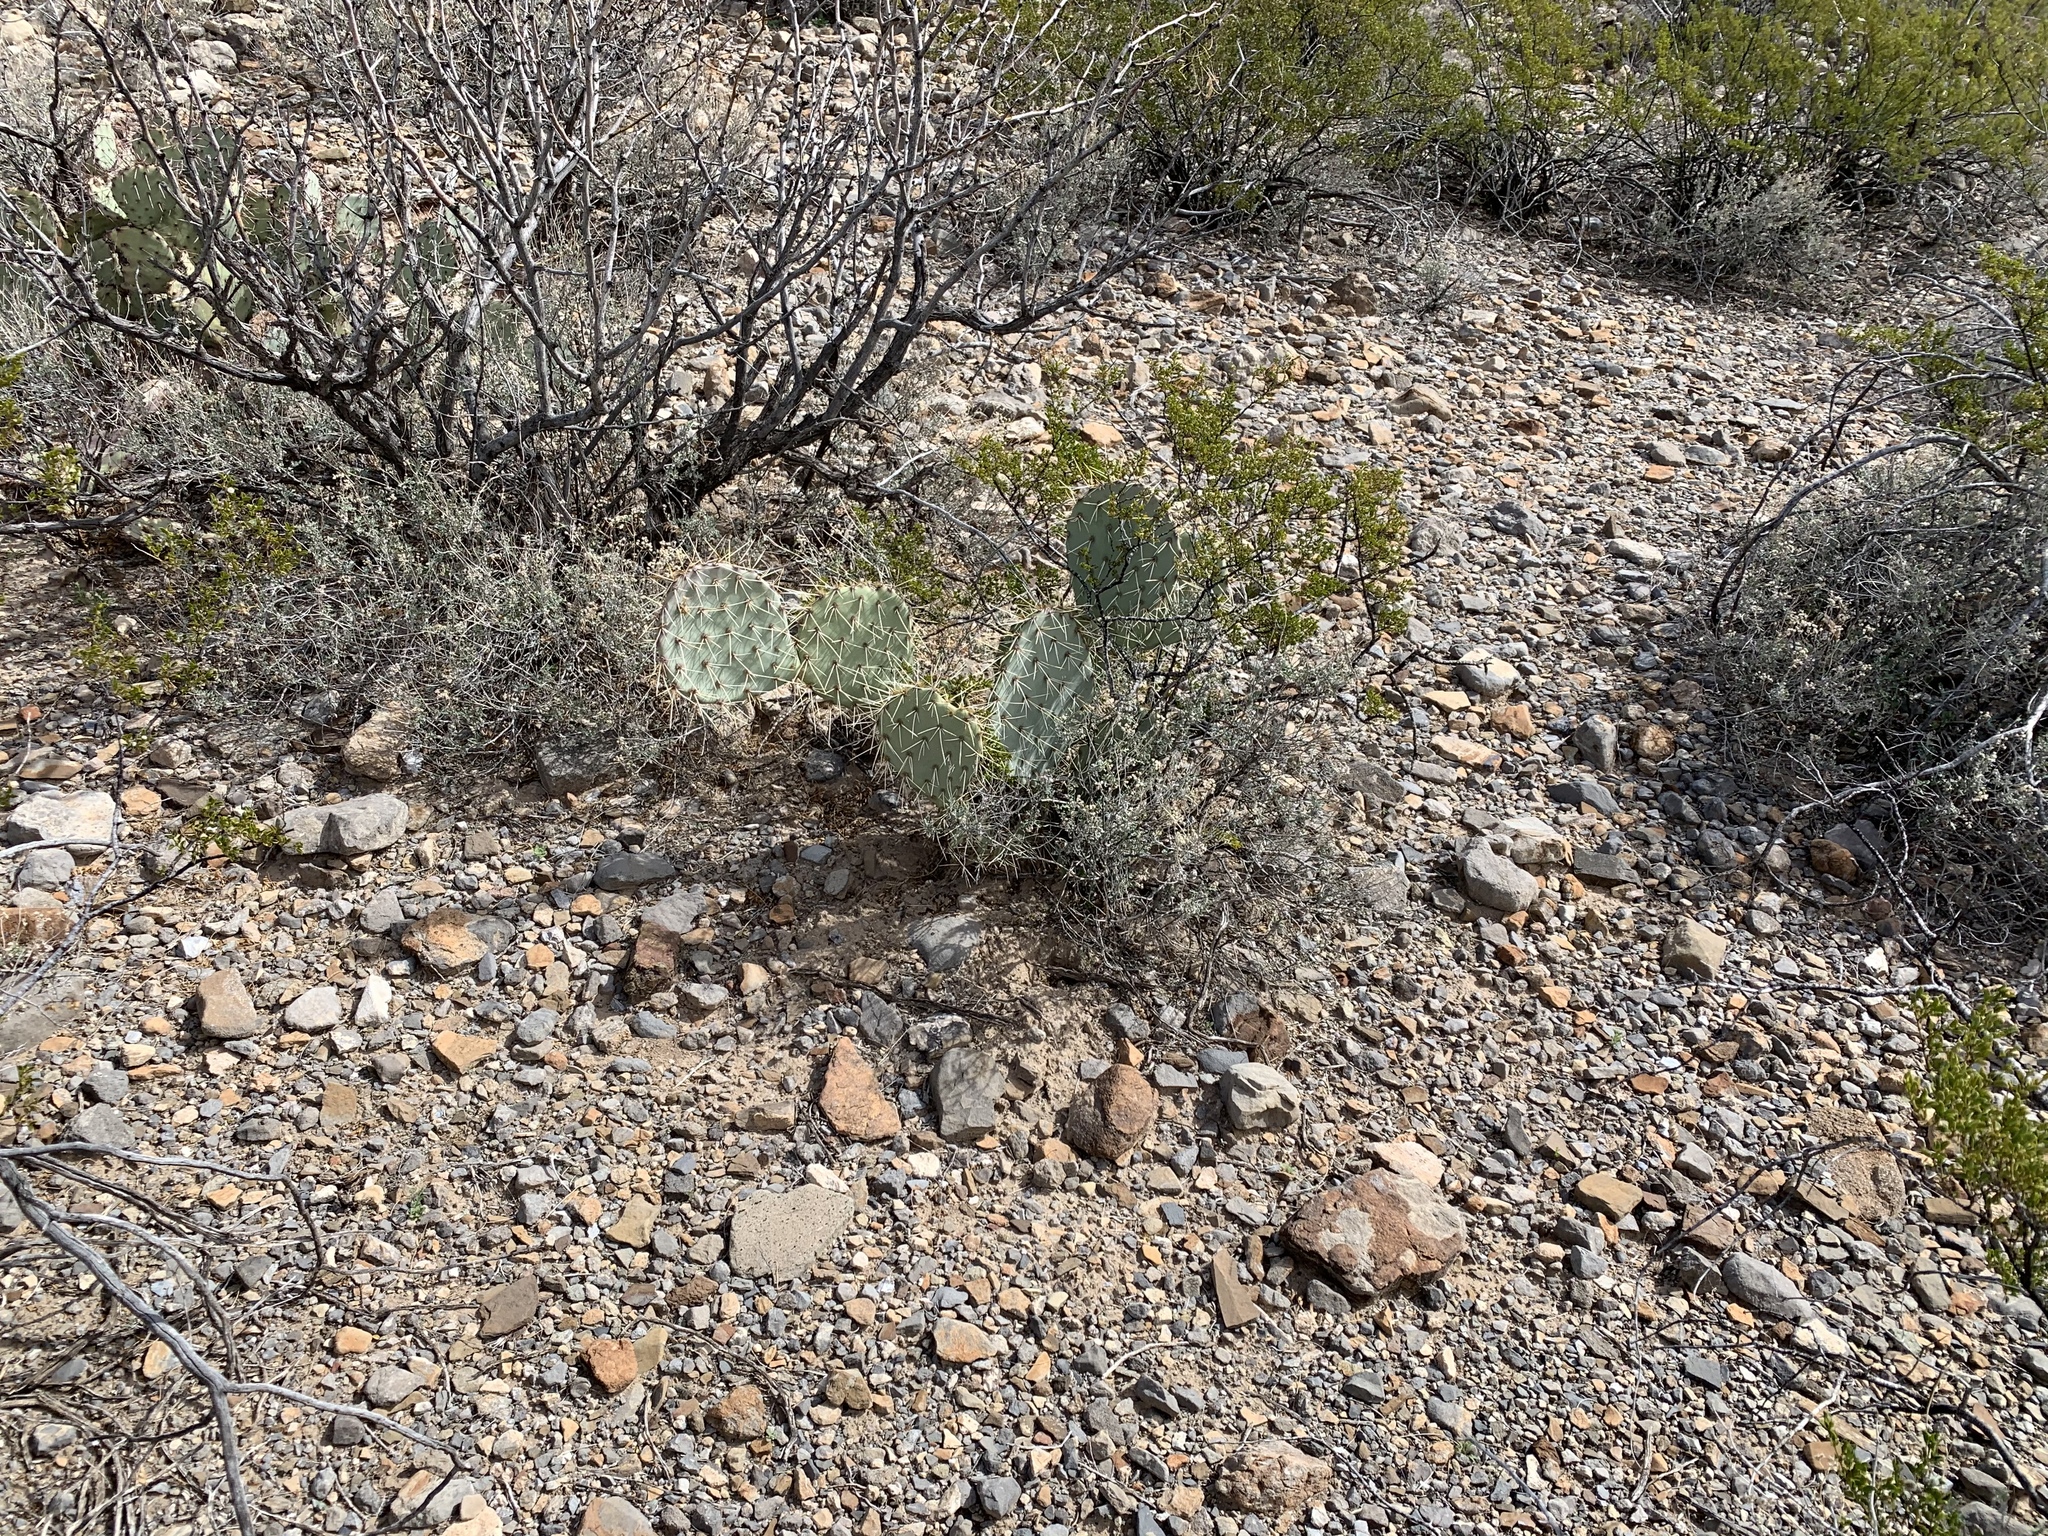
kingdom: Plantae
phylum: Tracheophyta
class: Magnoliopsida
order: Caryophyllales
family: Cactaceae
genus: Opuntia
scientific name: Opuntia phaeacantha
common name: New mexico prickly-pear
